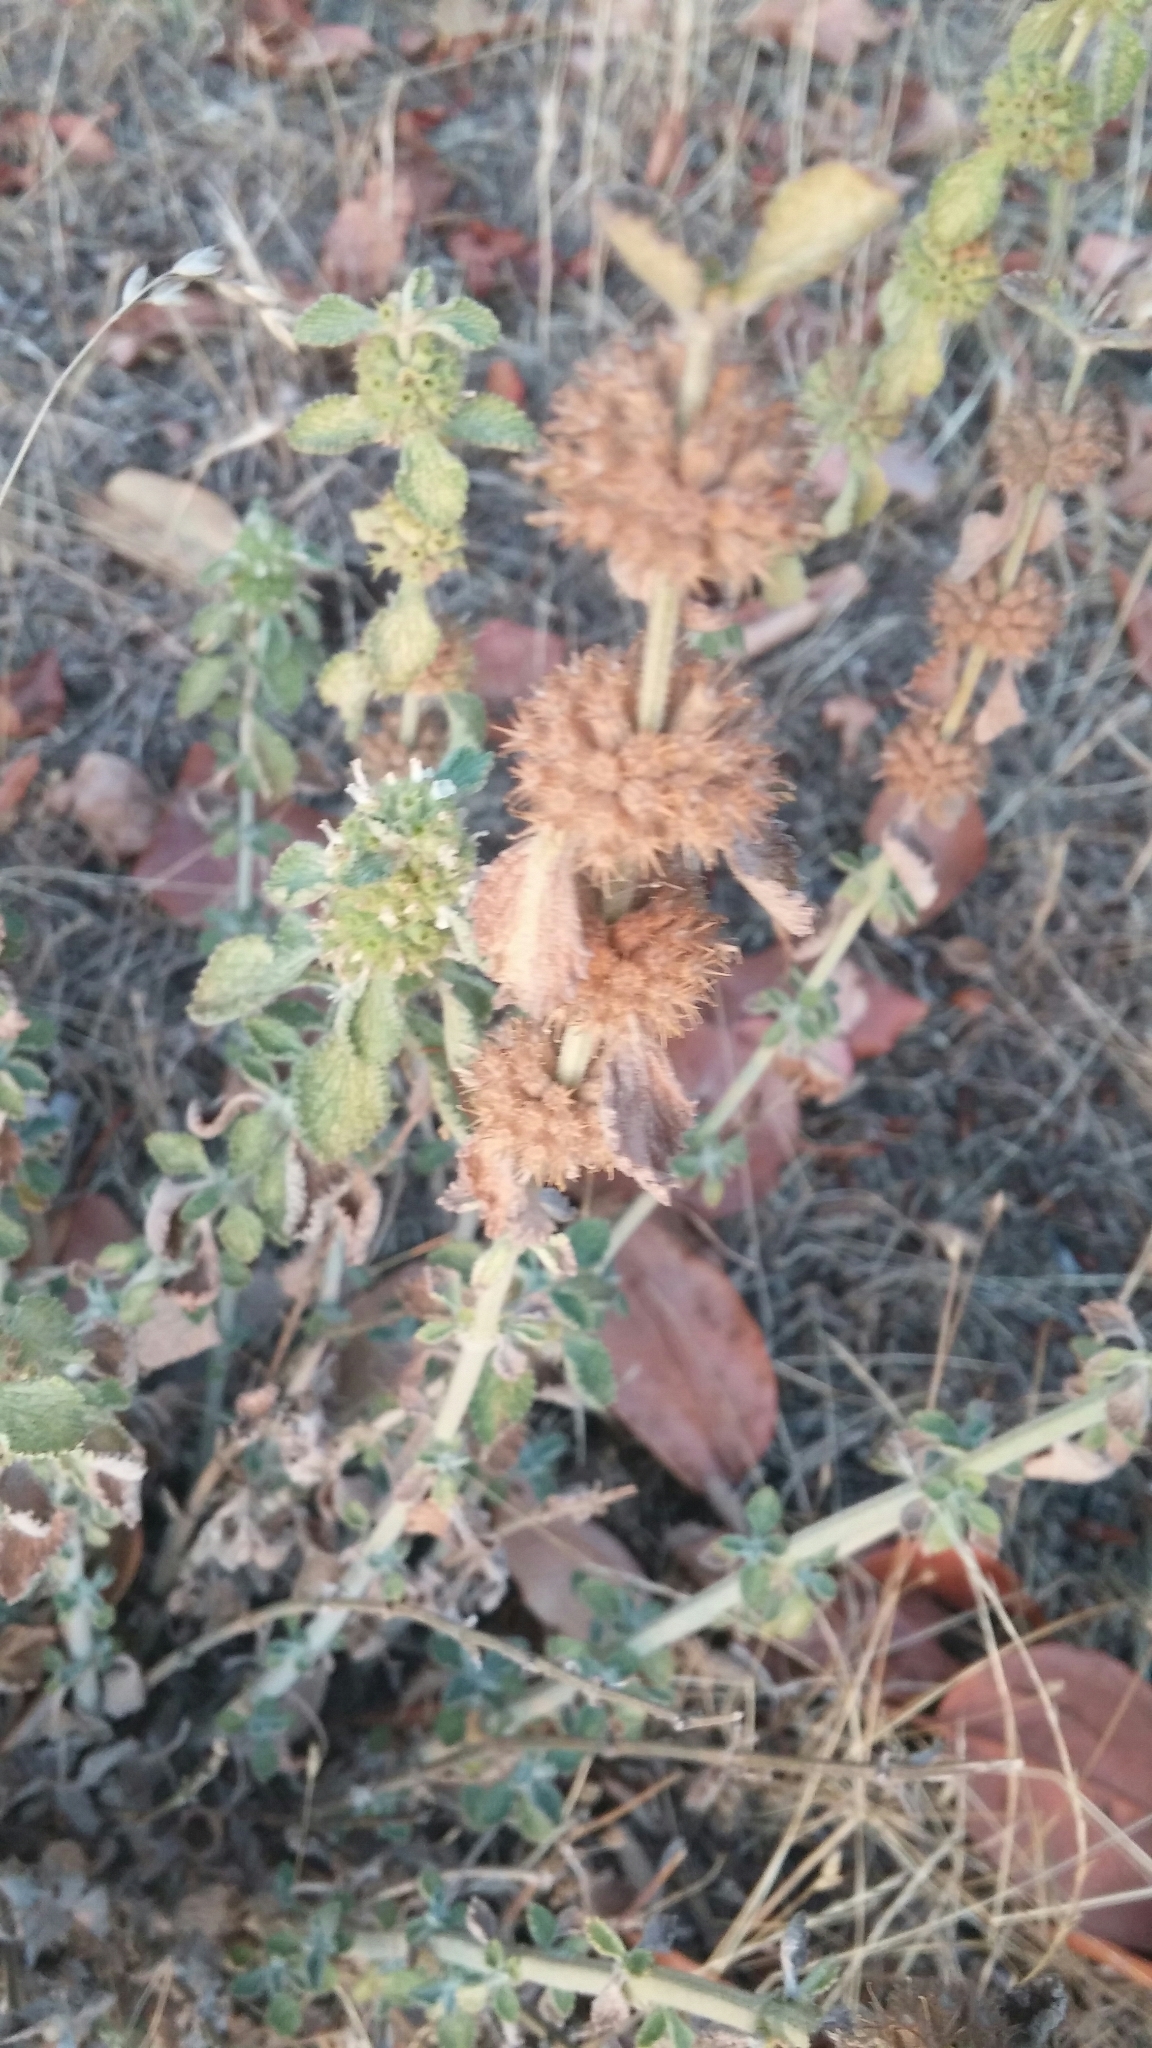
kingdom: Plantae
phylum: Tracheophyta
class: Magnoliopsida
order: Lamiales
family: Lamiaceae
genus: Marrubium
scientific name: Marrubium vulgare
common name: Horehound
